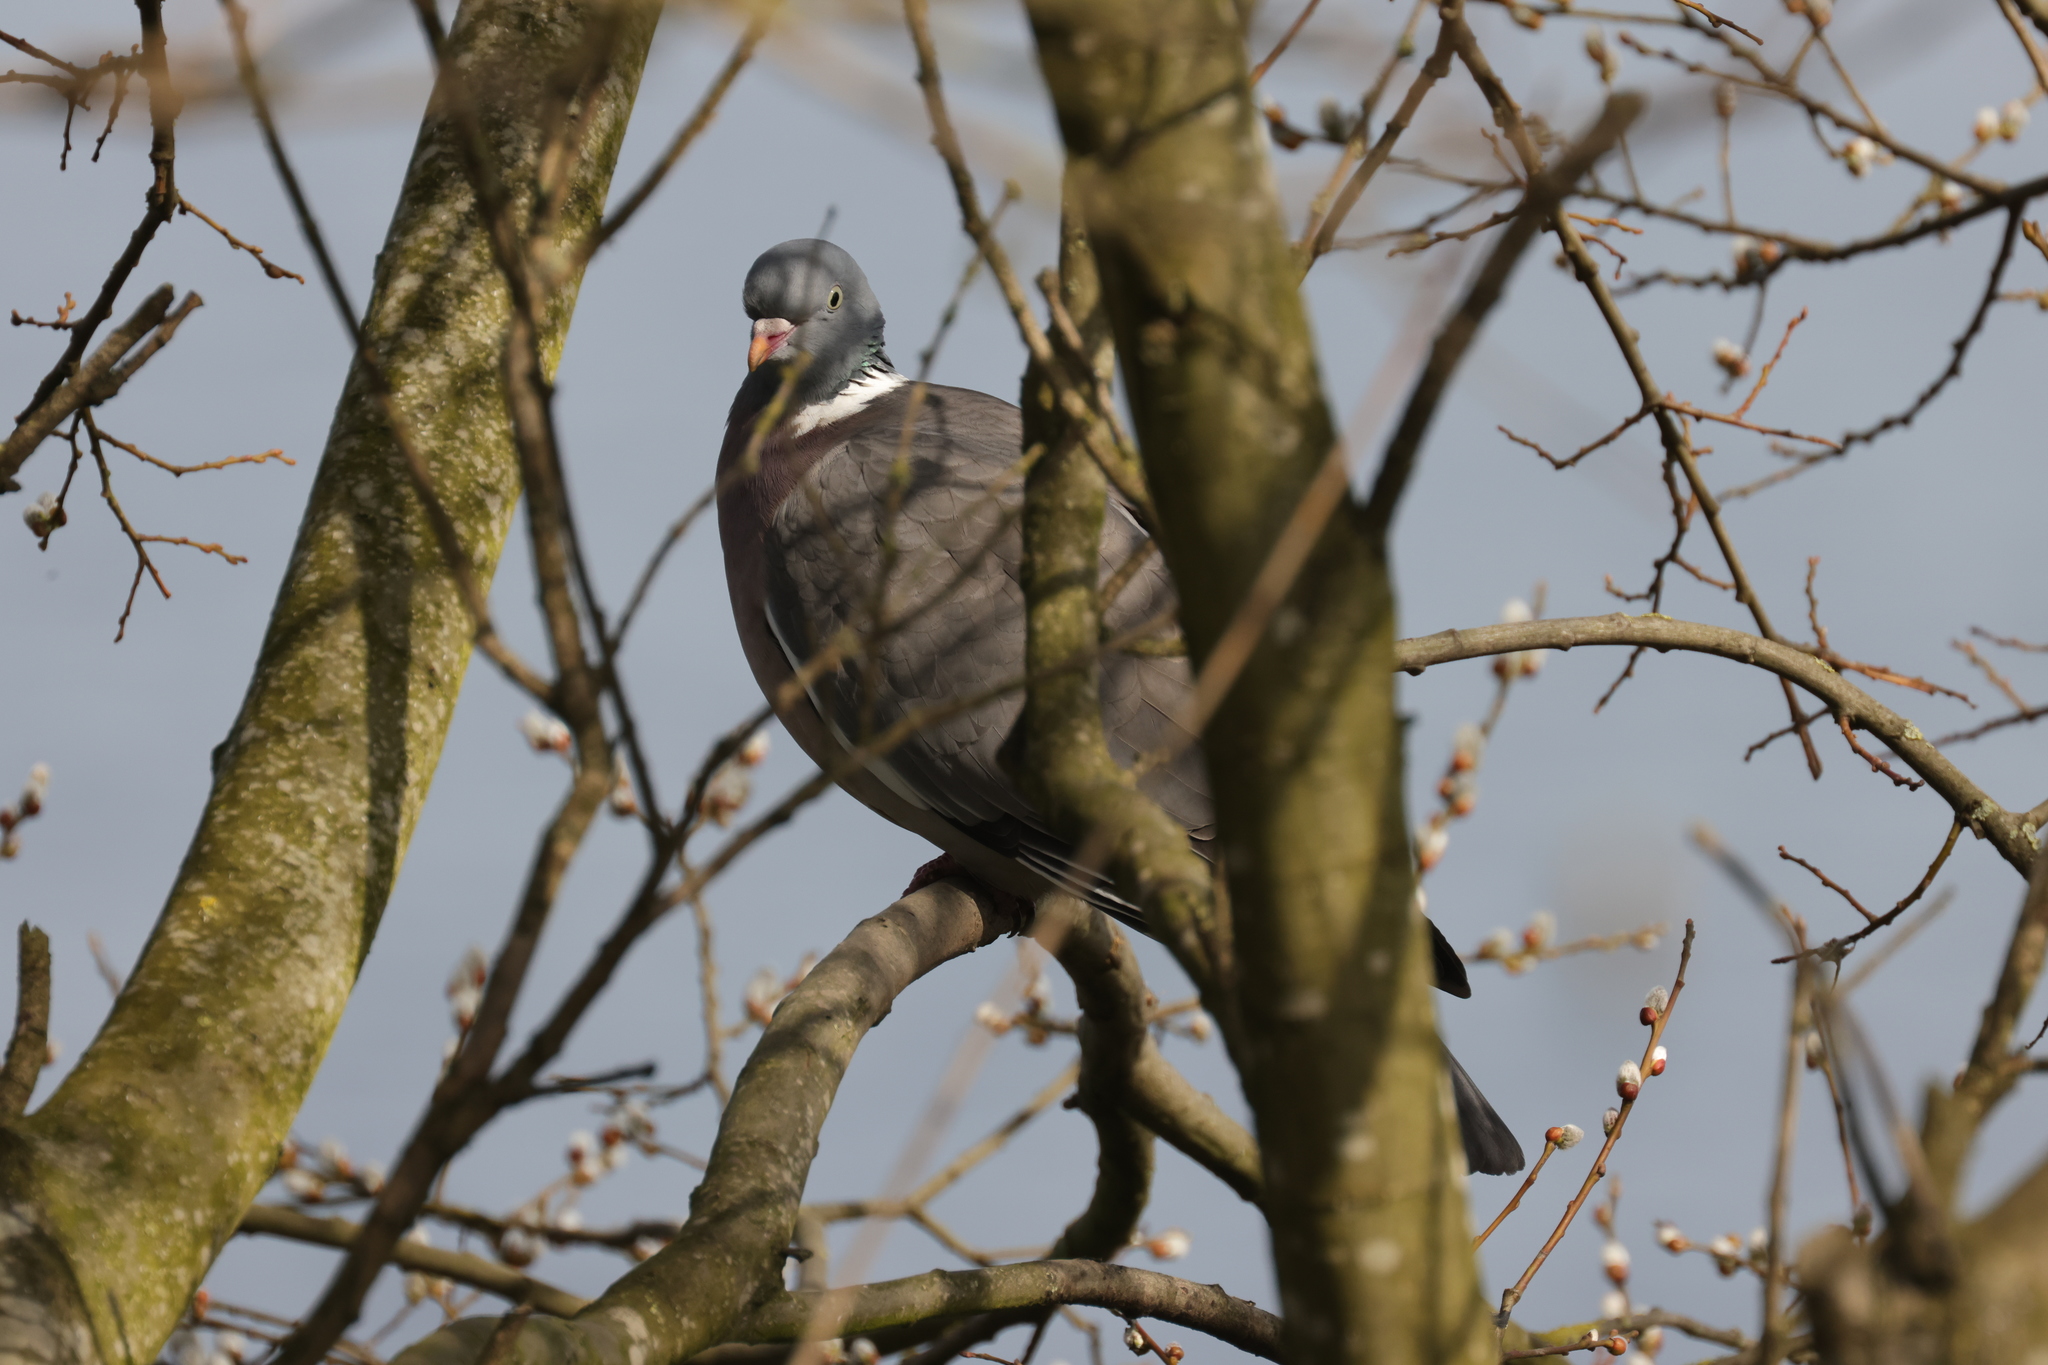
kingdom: Animalia
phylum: Chordata
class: Aves
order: Columbiformes
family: Columbidae
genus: Columba
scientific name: Columba palumbus
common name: Common wood pigeon
